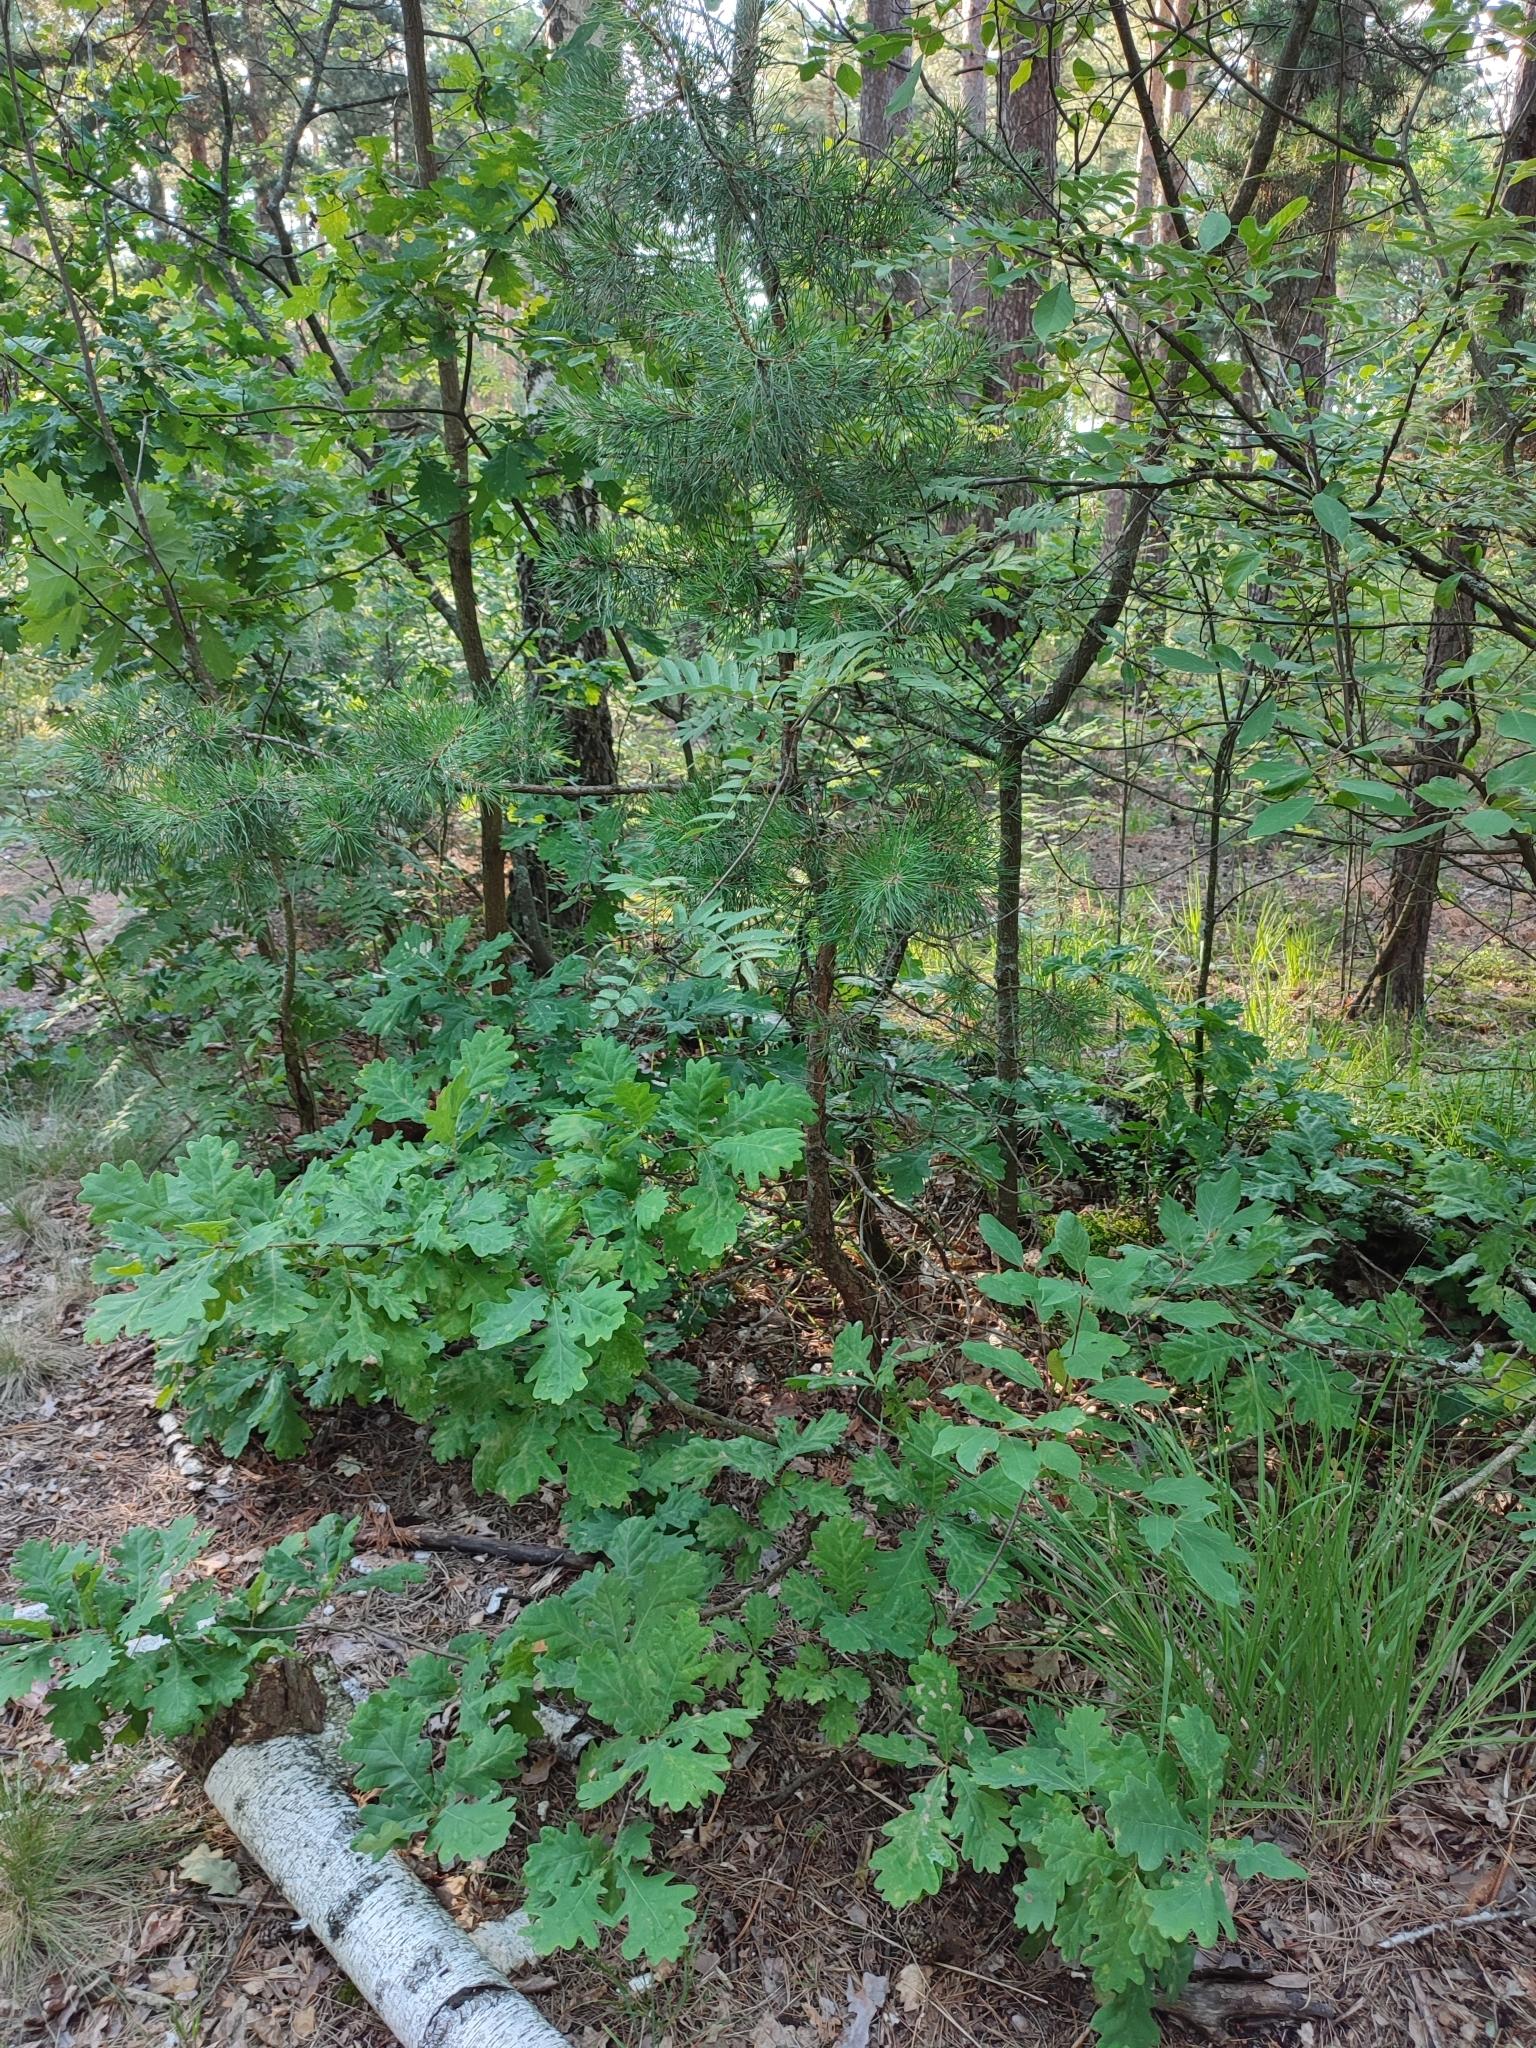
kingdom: Plantae
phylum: Tracheophyta
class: Magnoliopsida
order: Fagales
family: Fagaceae
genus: Quercus
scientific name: Quercus robur
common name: Pedunculate oak
